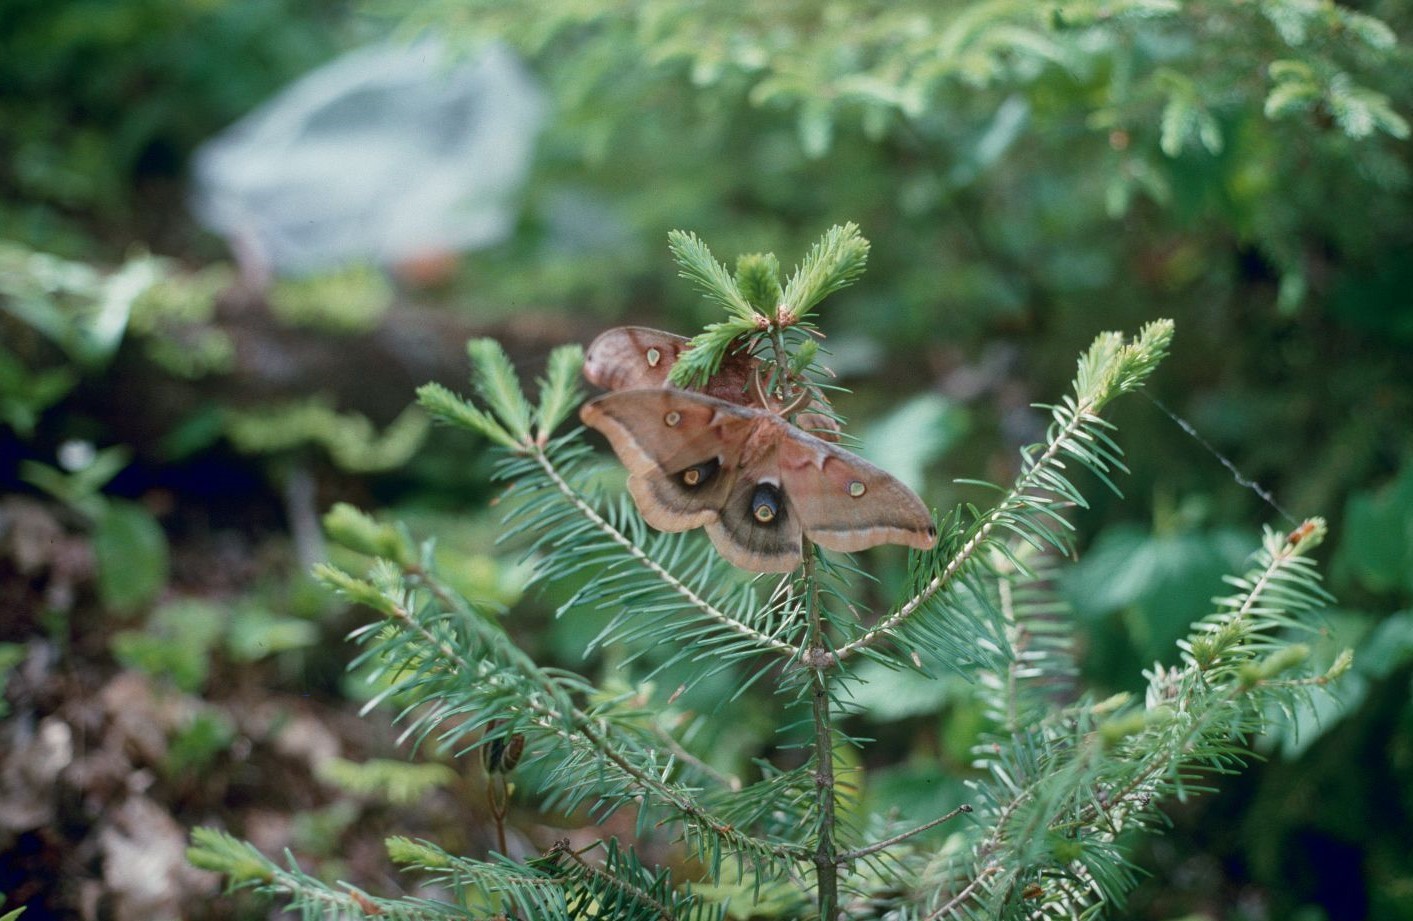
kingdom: Animalia
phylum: Arthropoda
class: Insecta
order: Lepidoptera
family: Saturniidae
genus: Antheraea
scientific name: Antheraea polyphemus
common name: Polyphemus moth
